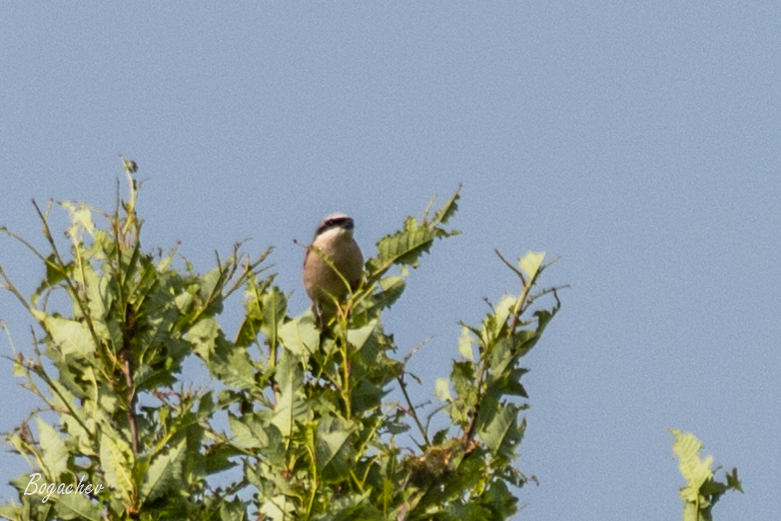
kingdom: Animalia
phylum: Chordata
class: Aves
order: Passeriformes
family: Laniidae
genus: Lanius
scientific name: Lanius collurio
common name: Red-backed shrike
